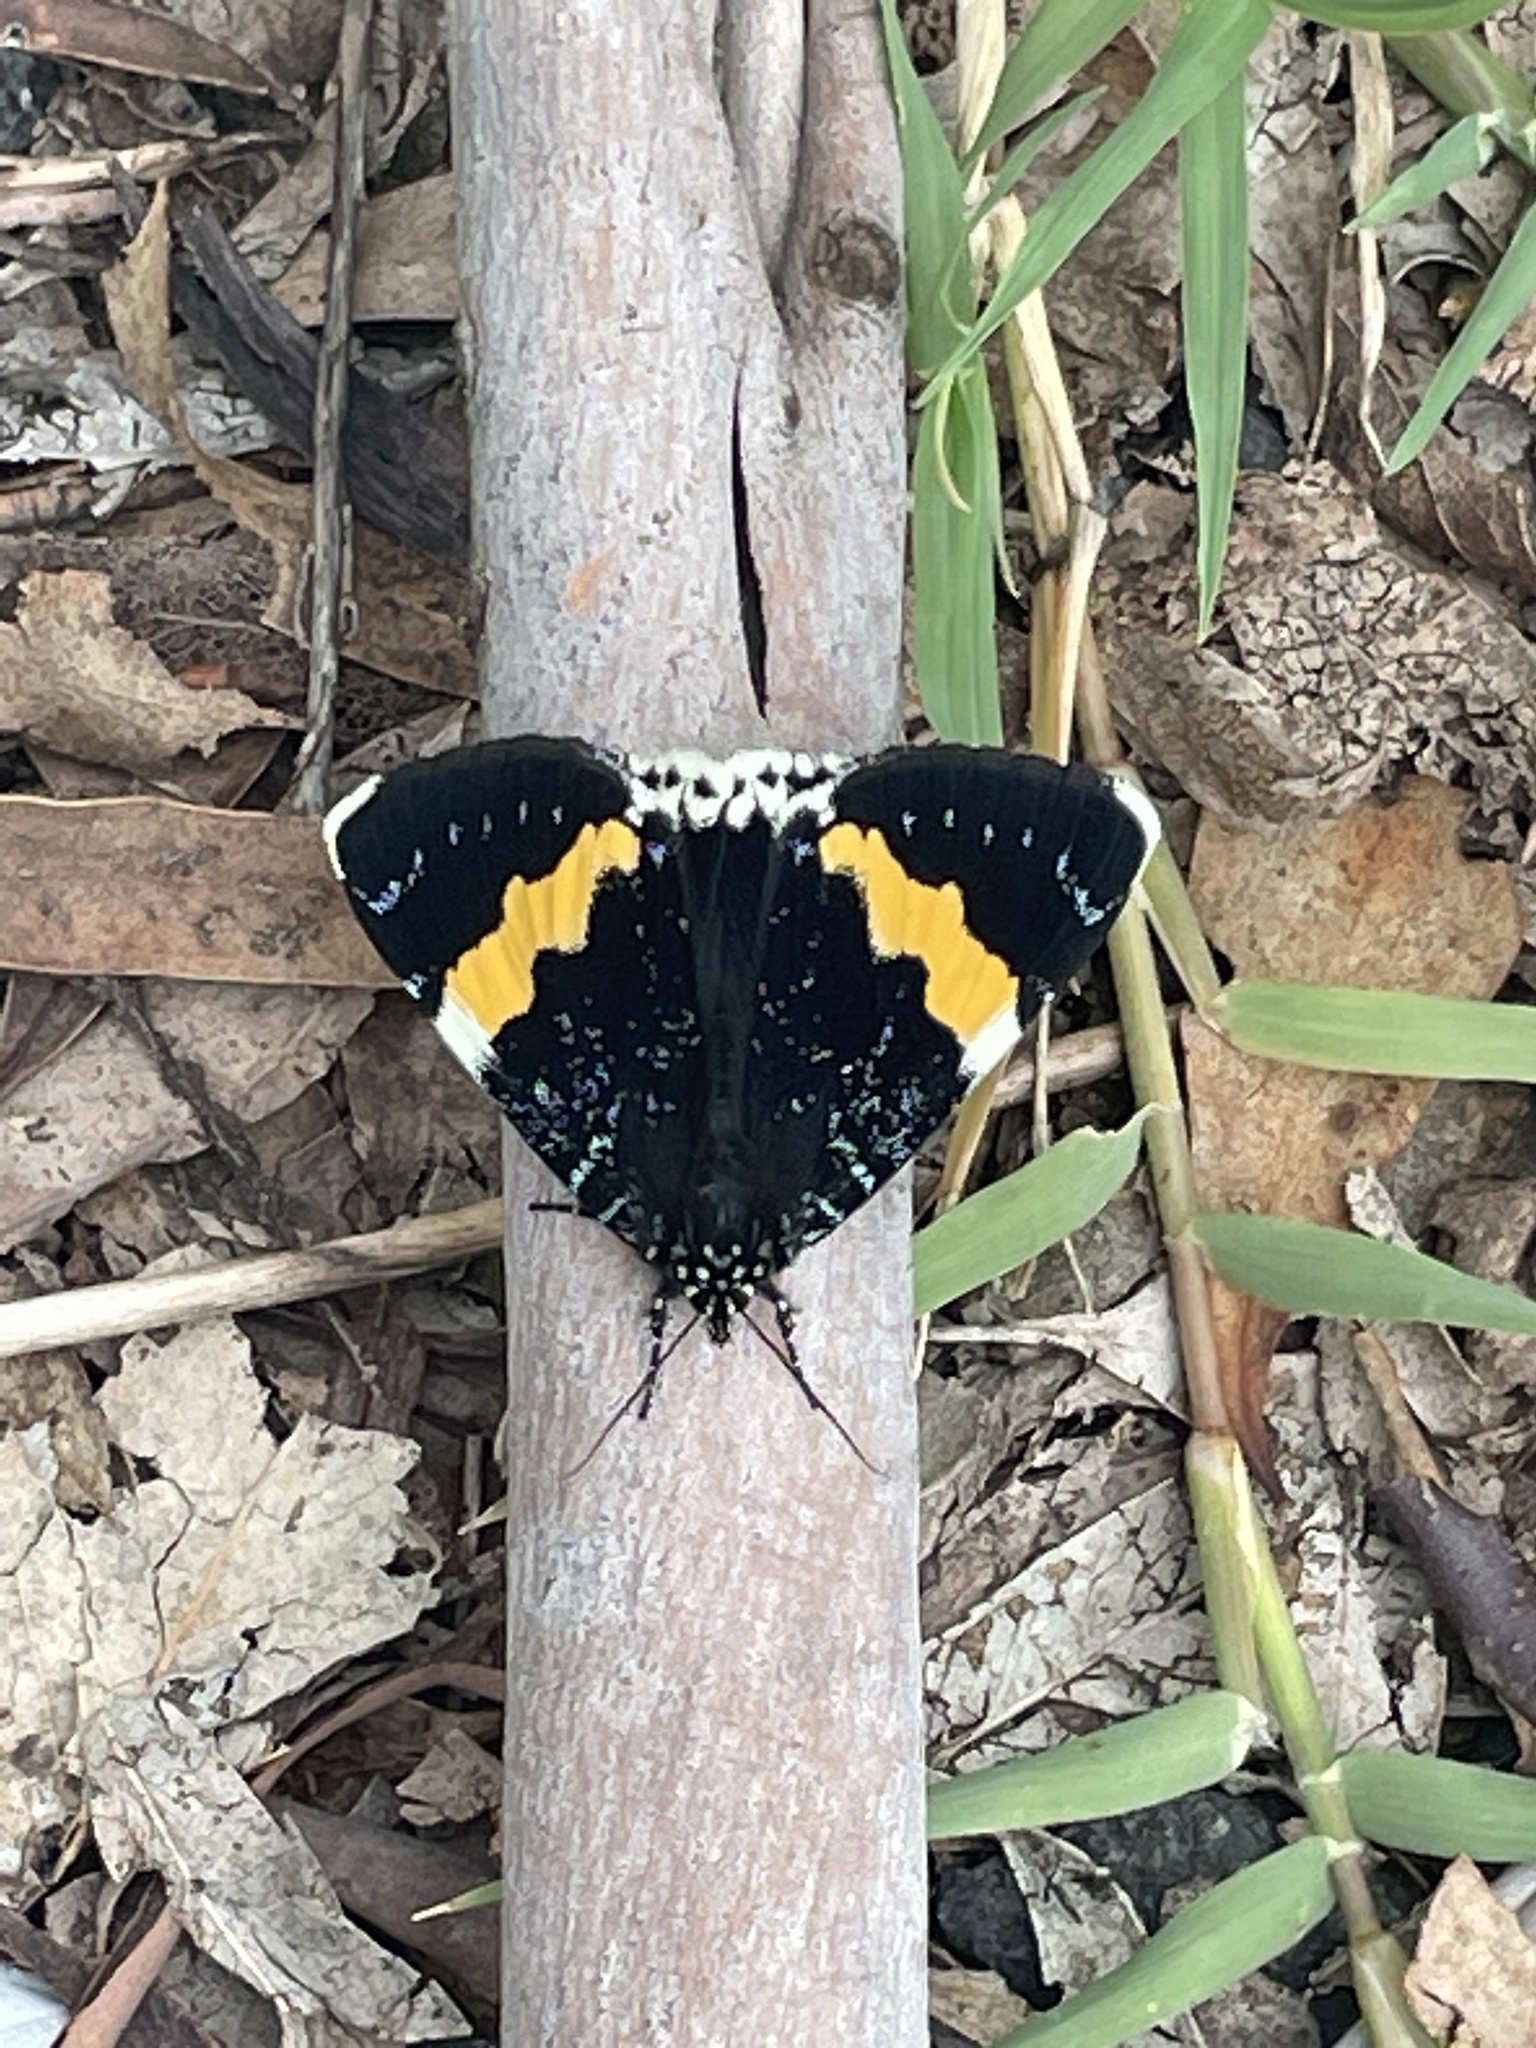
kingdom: Animalia
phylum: Arthropoda
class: Insecta
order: Lepidoptera
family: Noctuidae
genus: Eutrichopidia
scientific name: Eutrichopidia latinus
